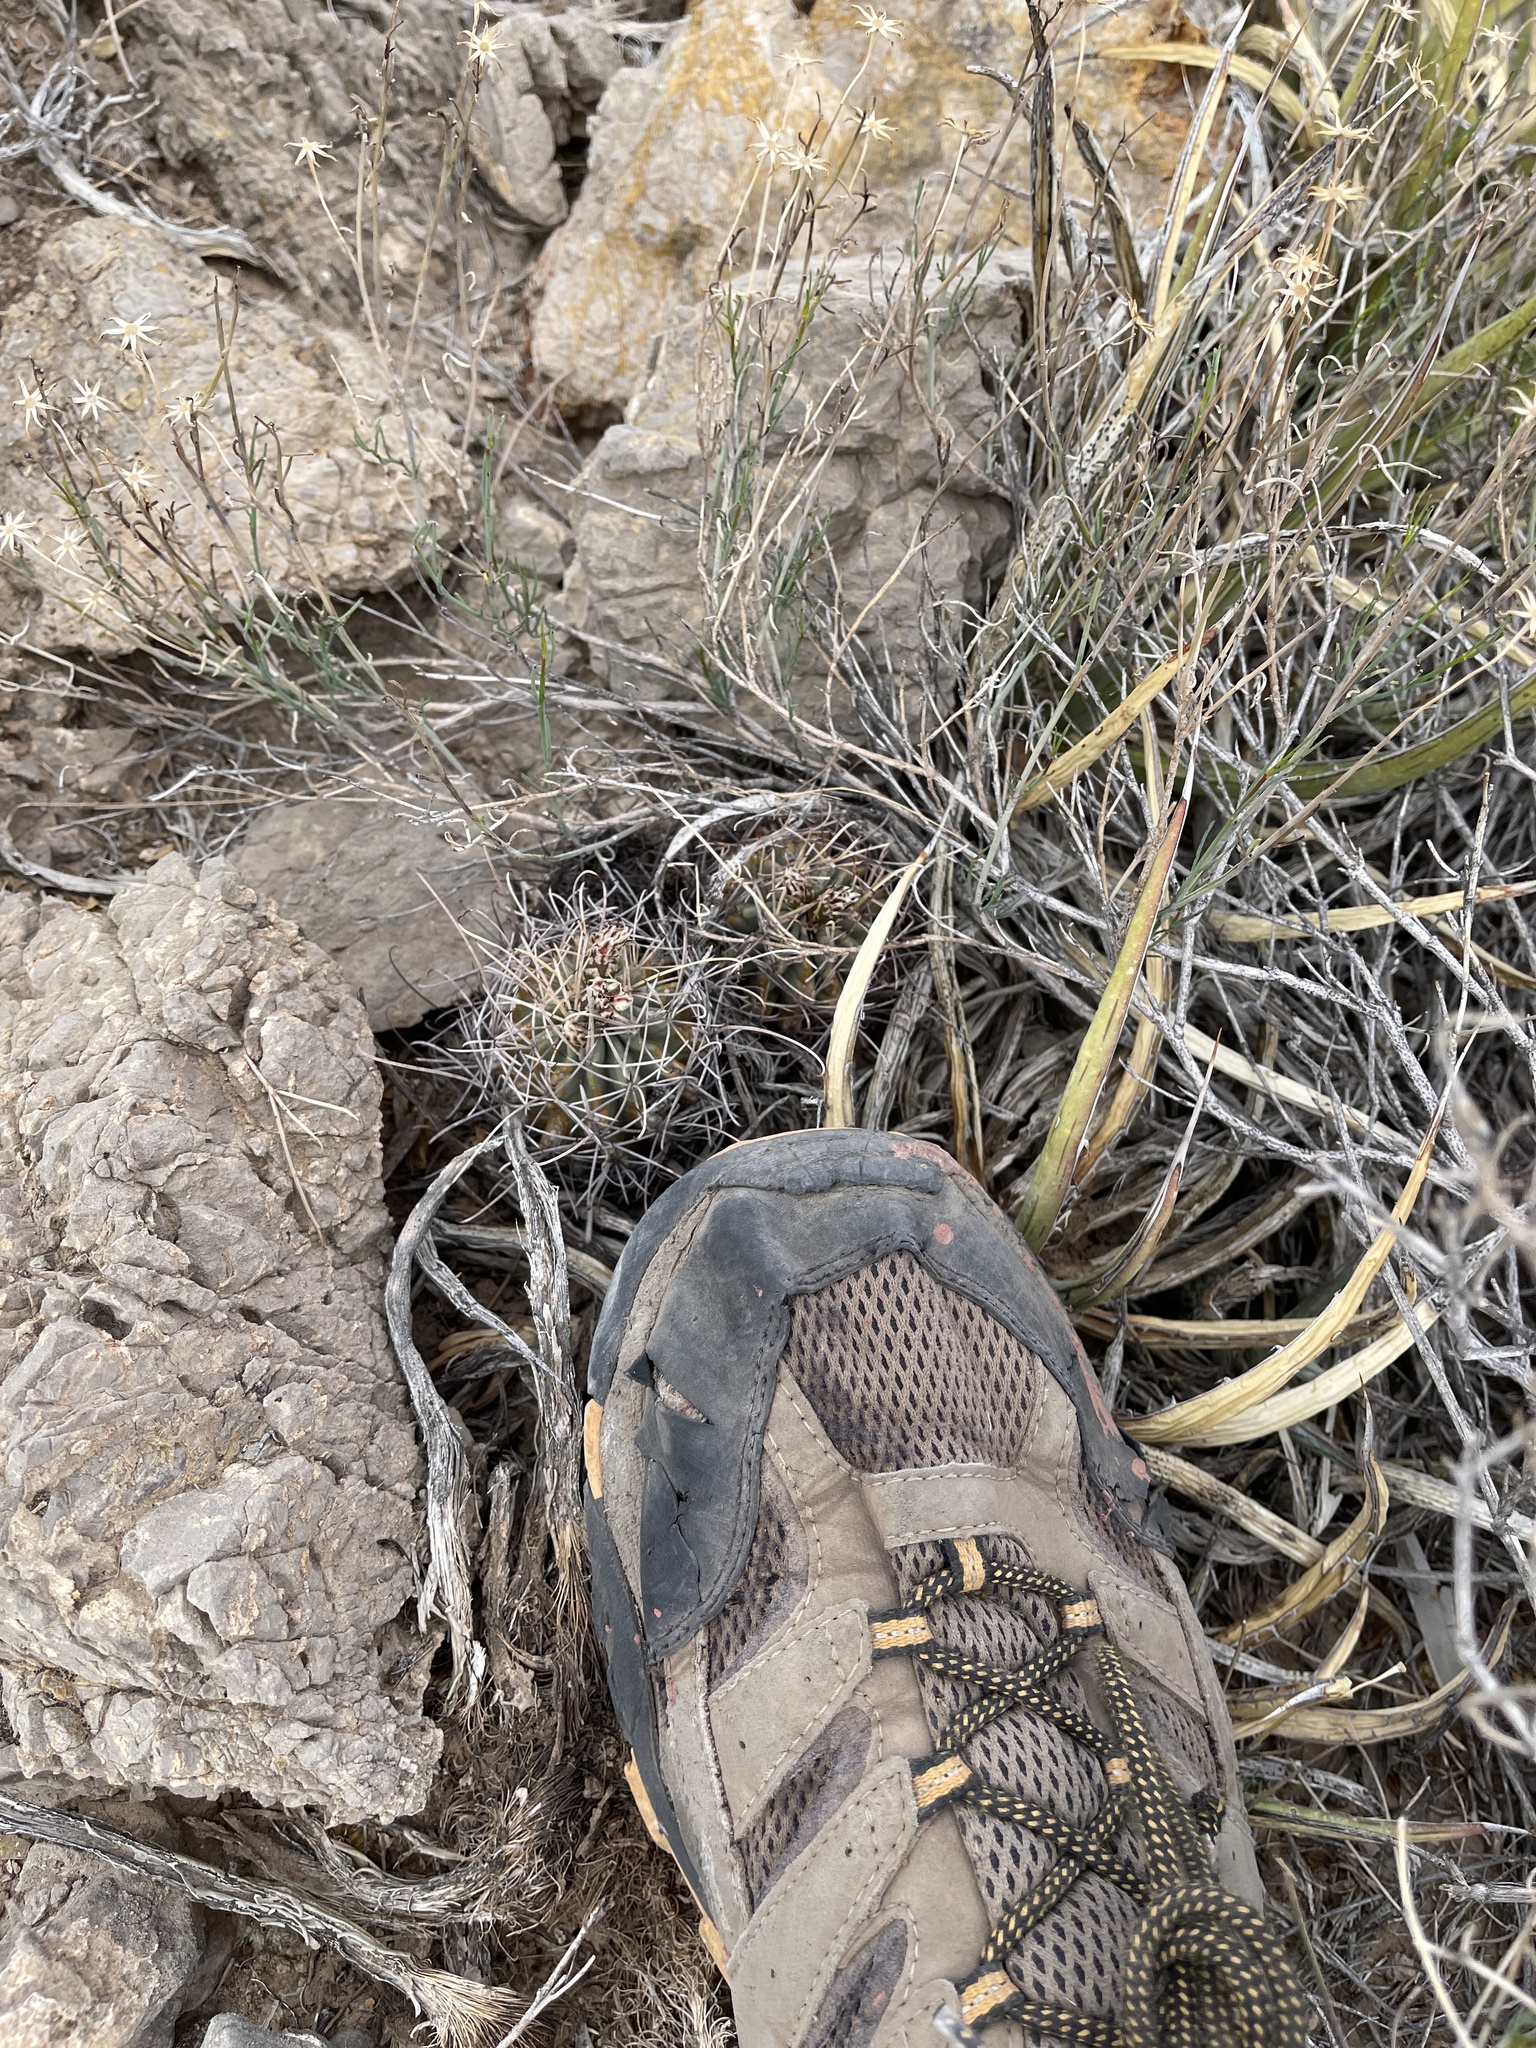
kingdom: Plantae
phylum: Tracheophyta
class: Magnoliopsida
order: Caryophyllales
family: Cactaceae
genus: Ferocactus
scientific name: Ferocactus uncinatus
